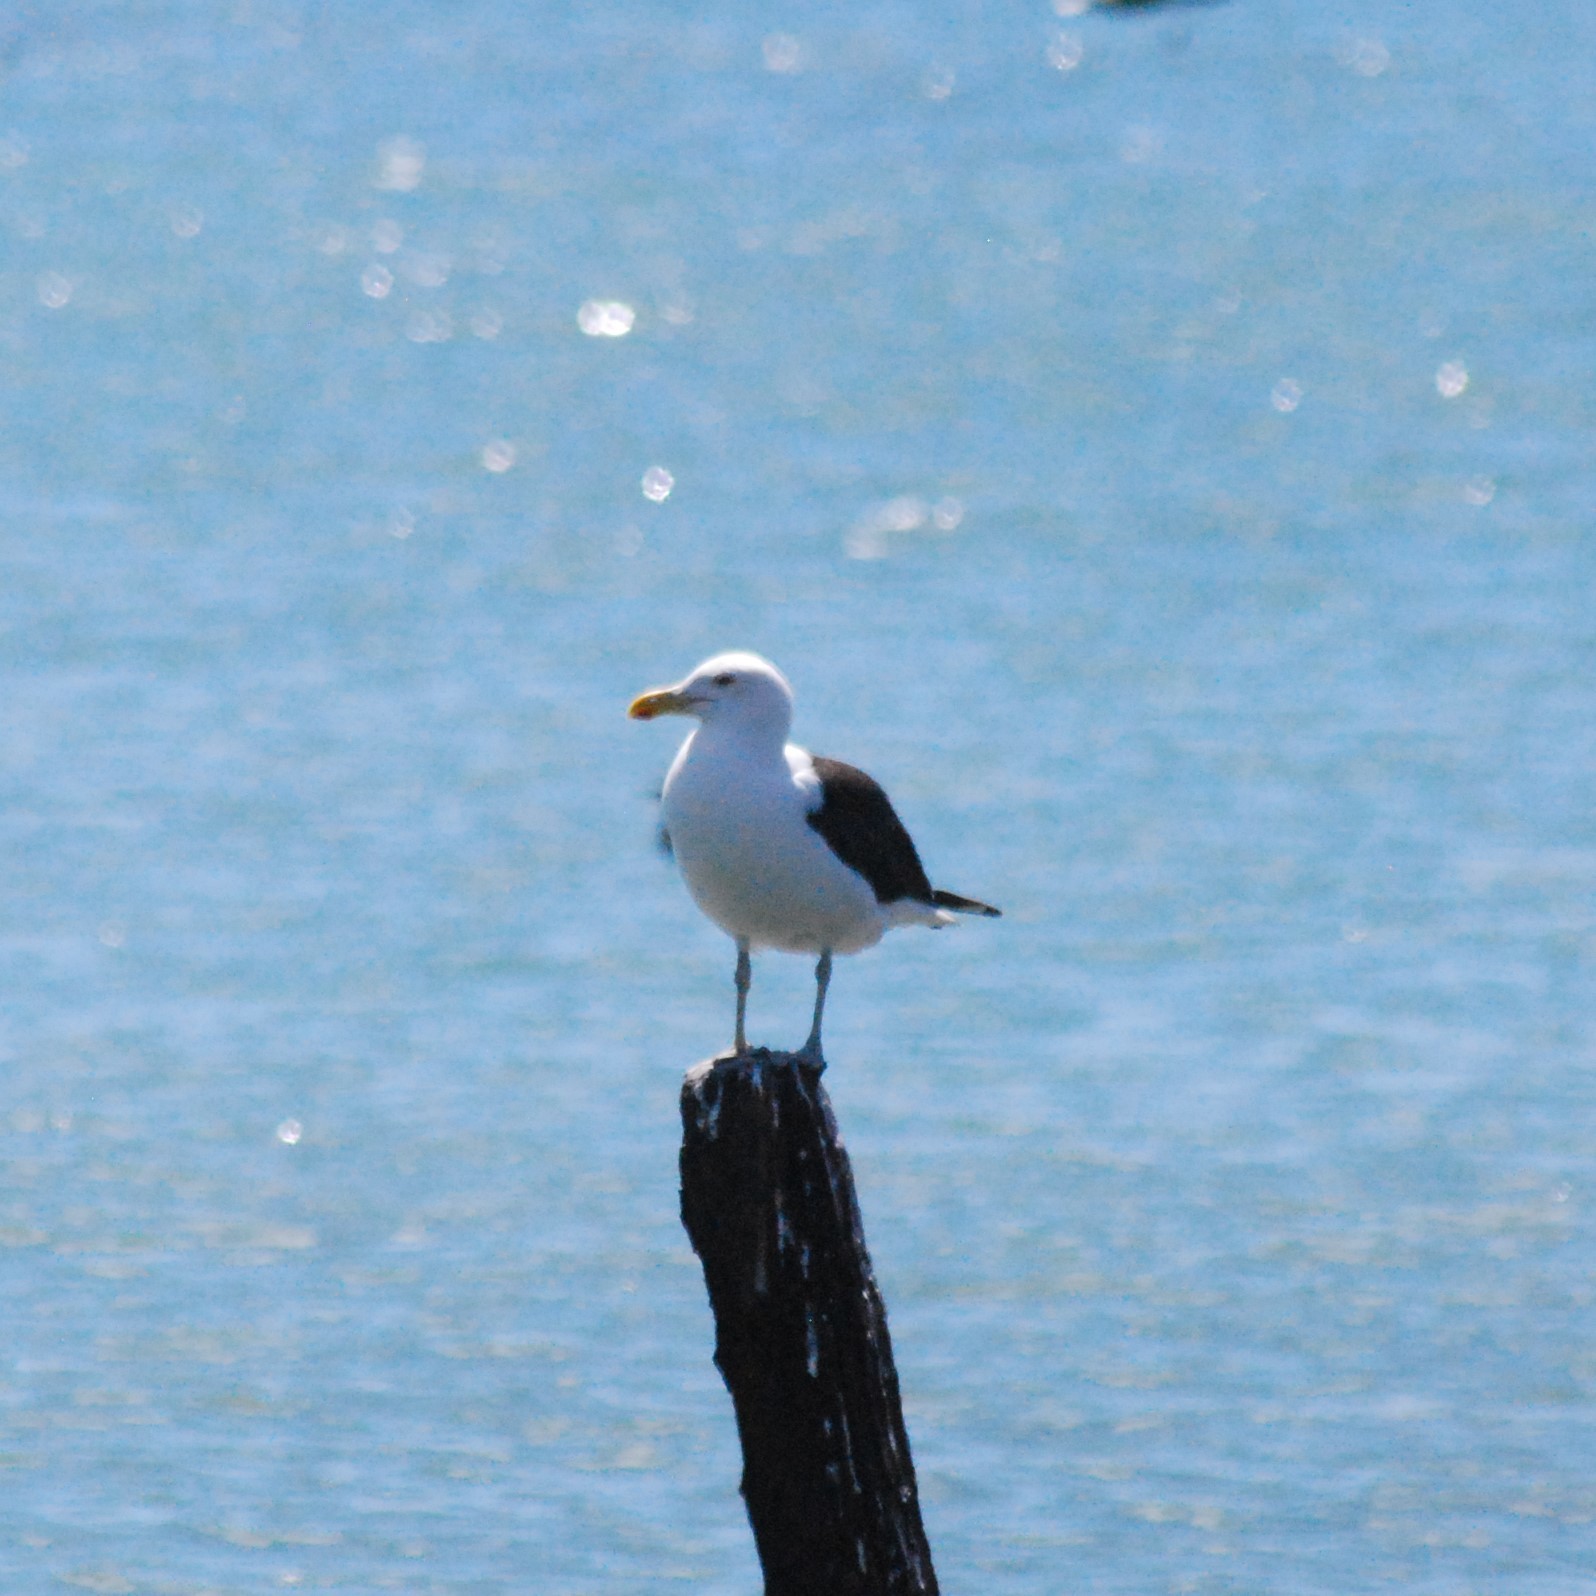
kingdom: Animalia
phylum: Chordata
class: Aves
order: Charadriiformes
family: Laridae
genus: Larus
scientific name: Larus dominicanus
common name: Kelp gull
